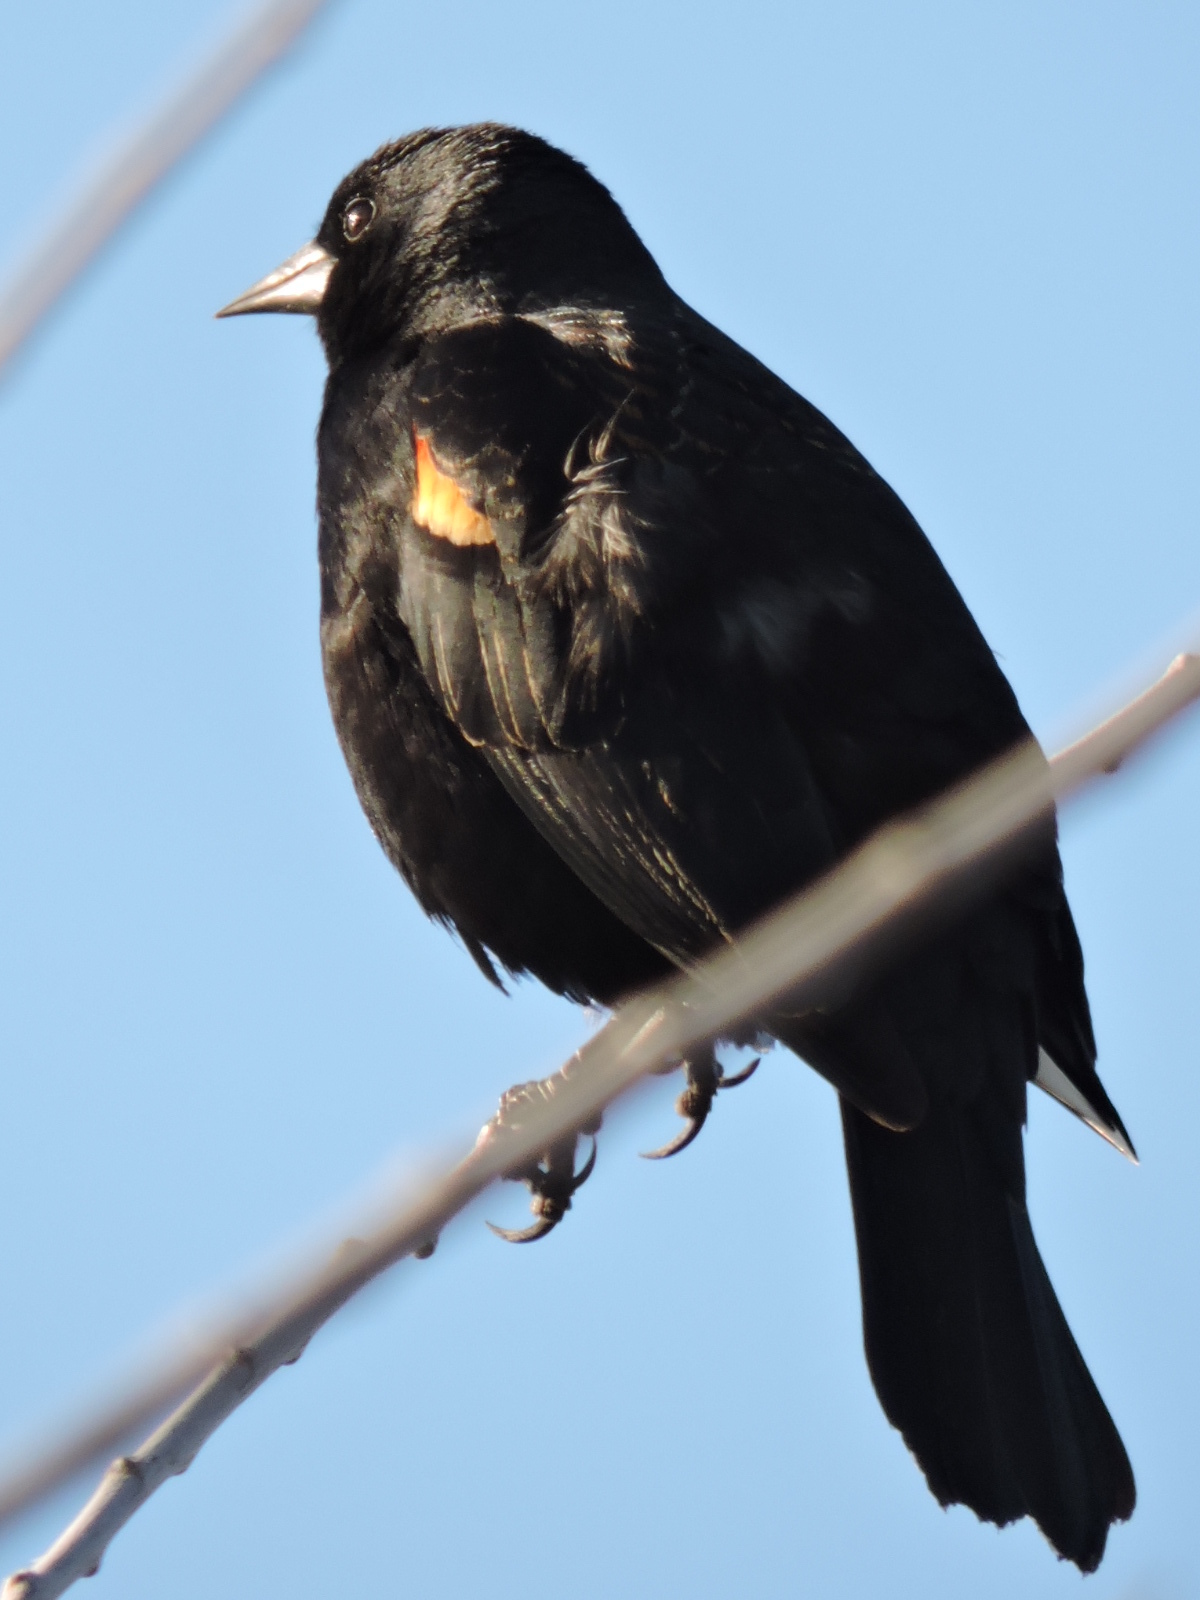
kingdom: Animalia
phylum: Chordata
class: Aves
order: Passeriformes
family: Icteridae
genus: Agelaius
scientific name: Agelaius phoeniceus
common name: Red-winged blackbird
